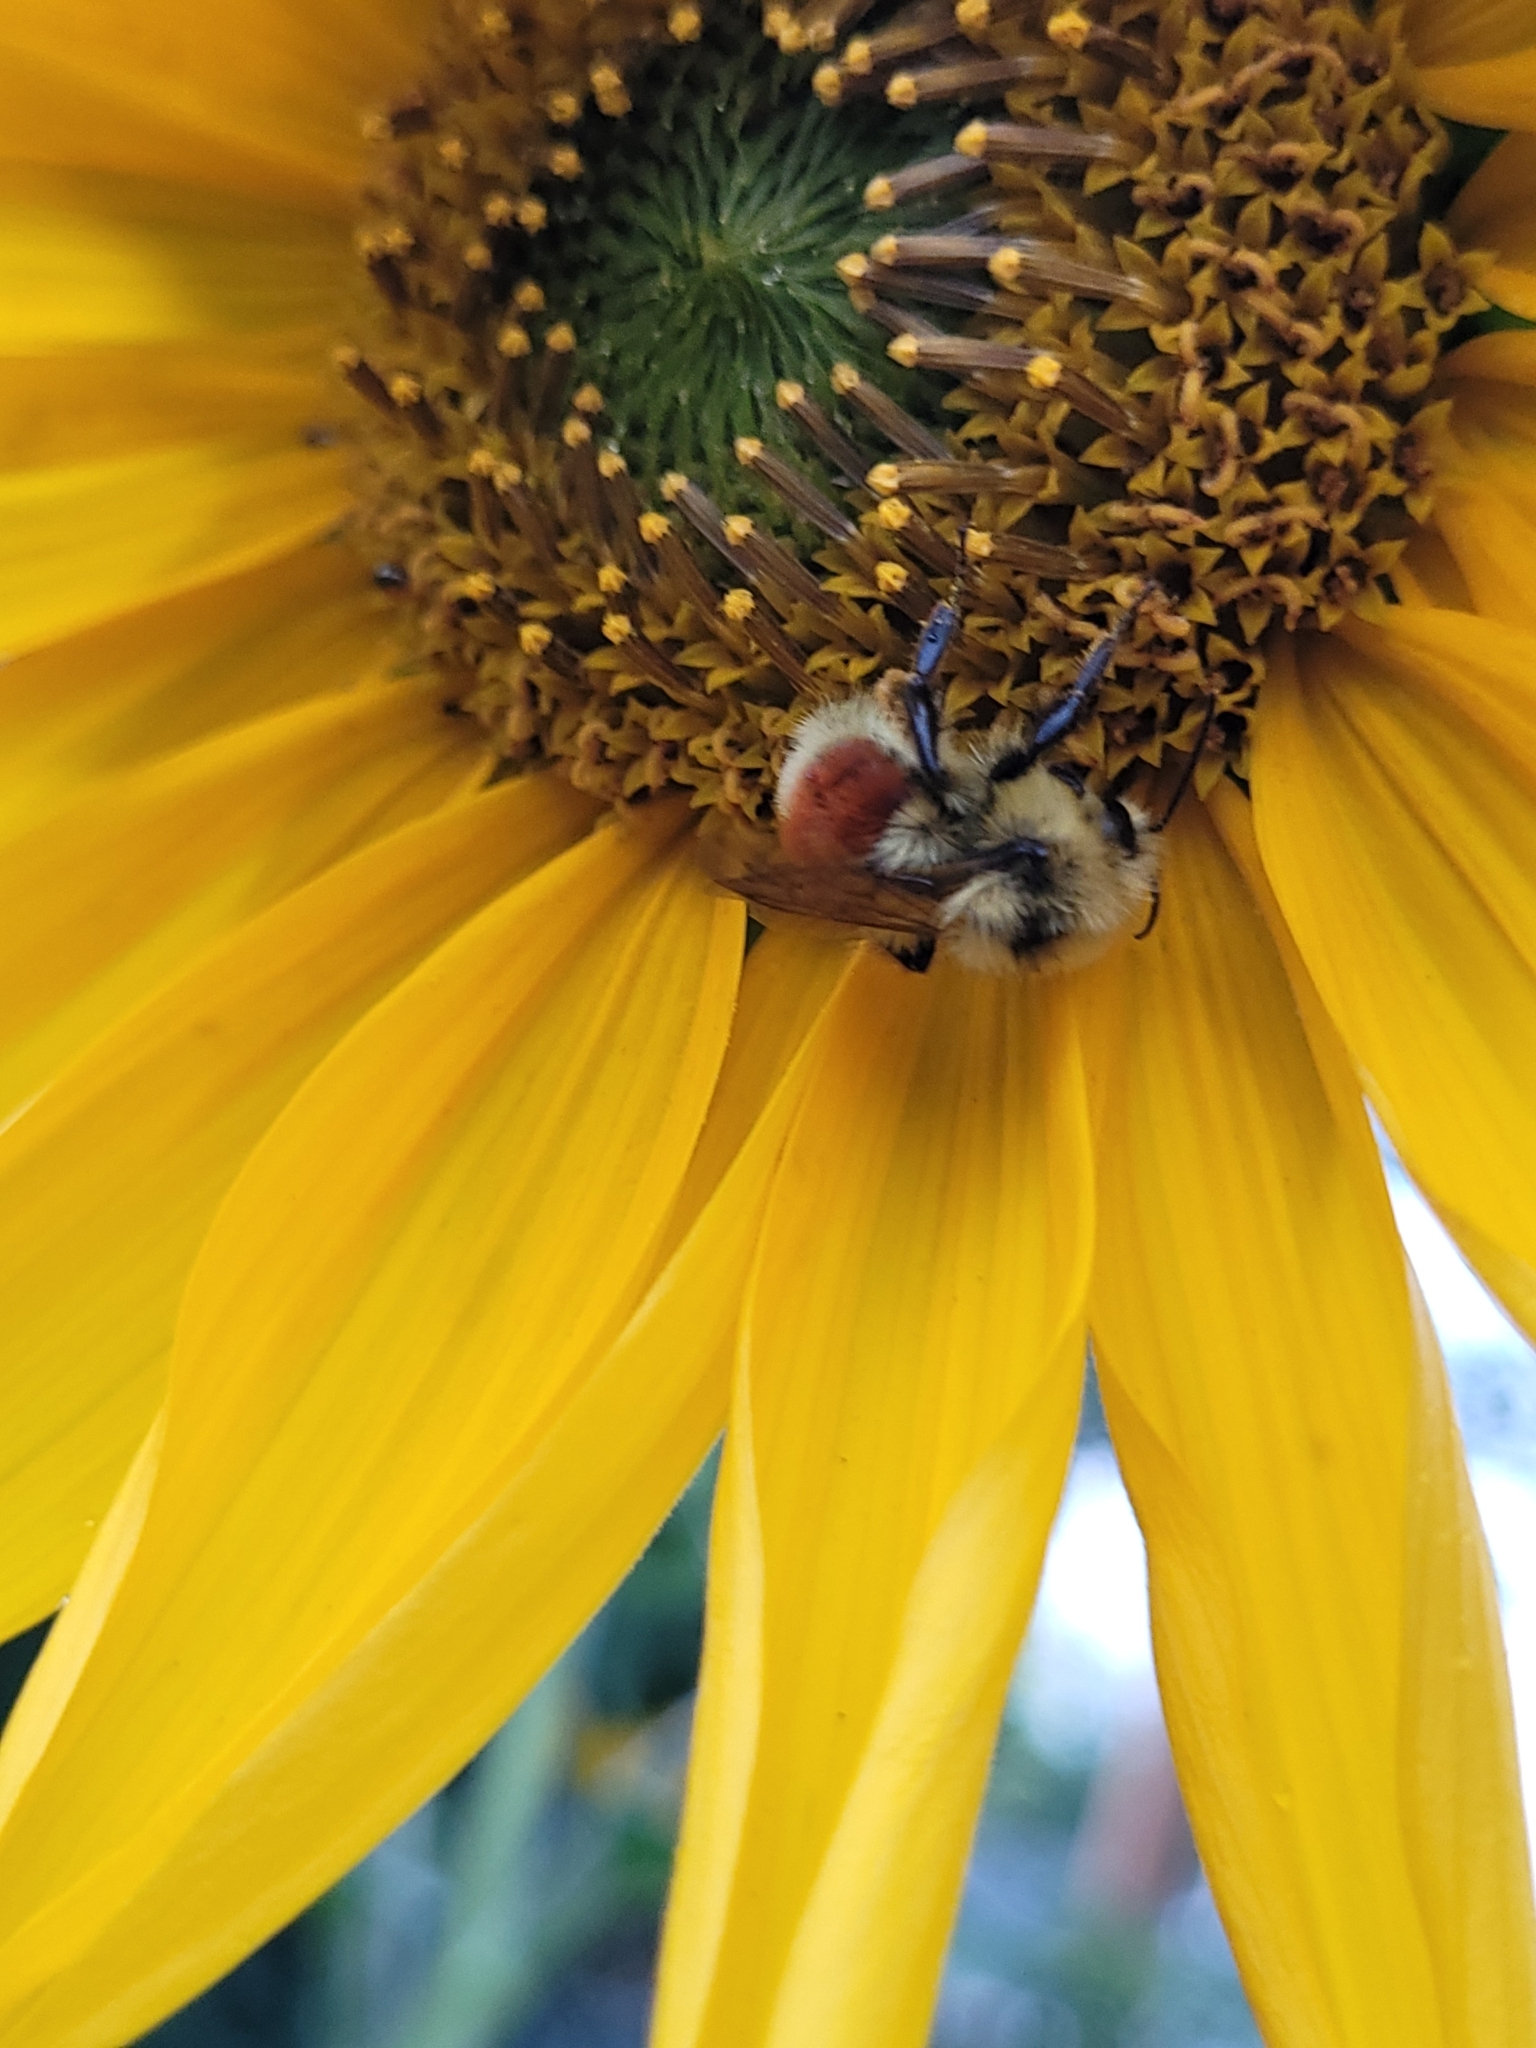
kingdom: Animalia
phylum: Arthropoda
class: Insecta
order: Hymenoptera
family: Apidae
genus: Bombus
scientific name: Bombus huntii
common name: Hunt bumble bee
